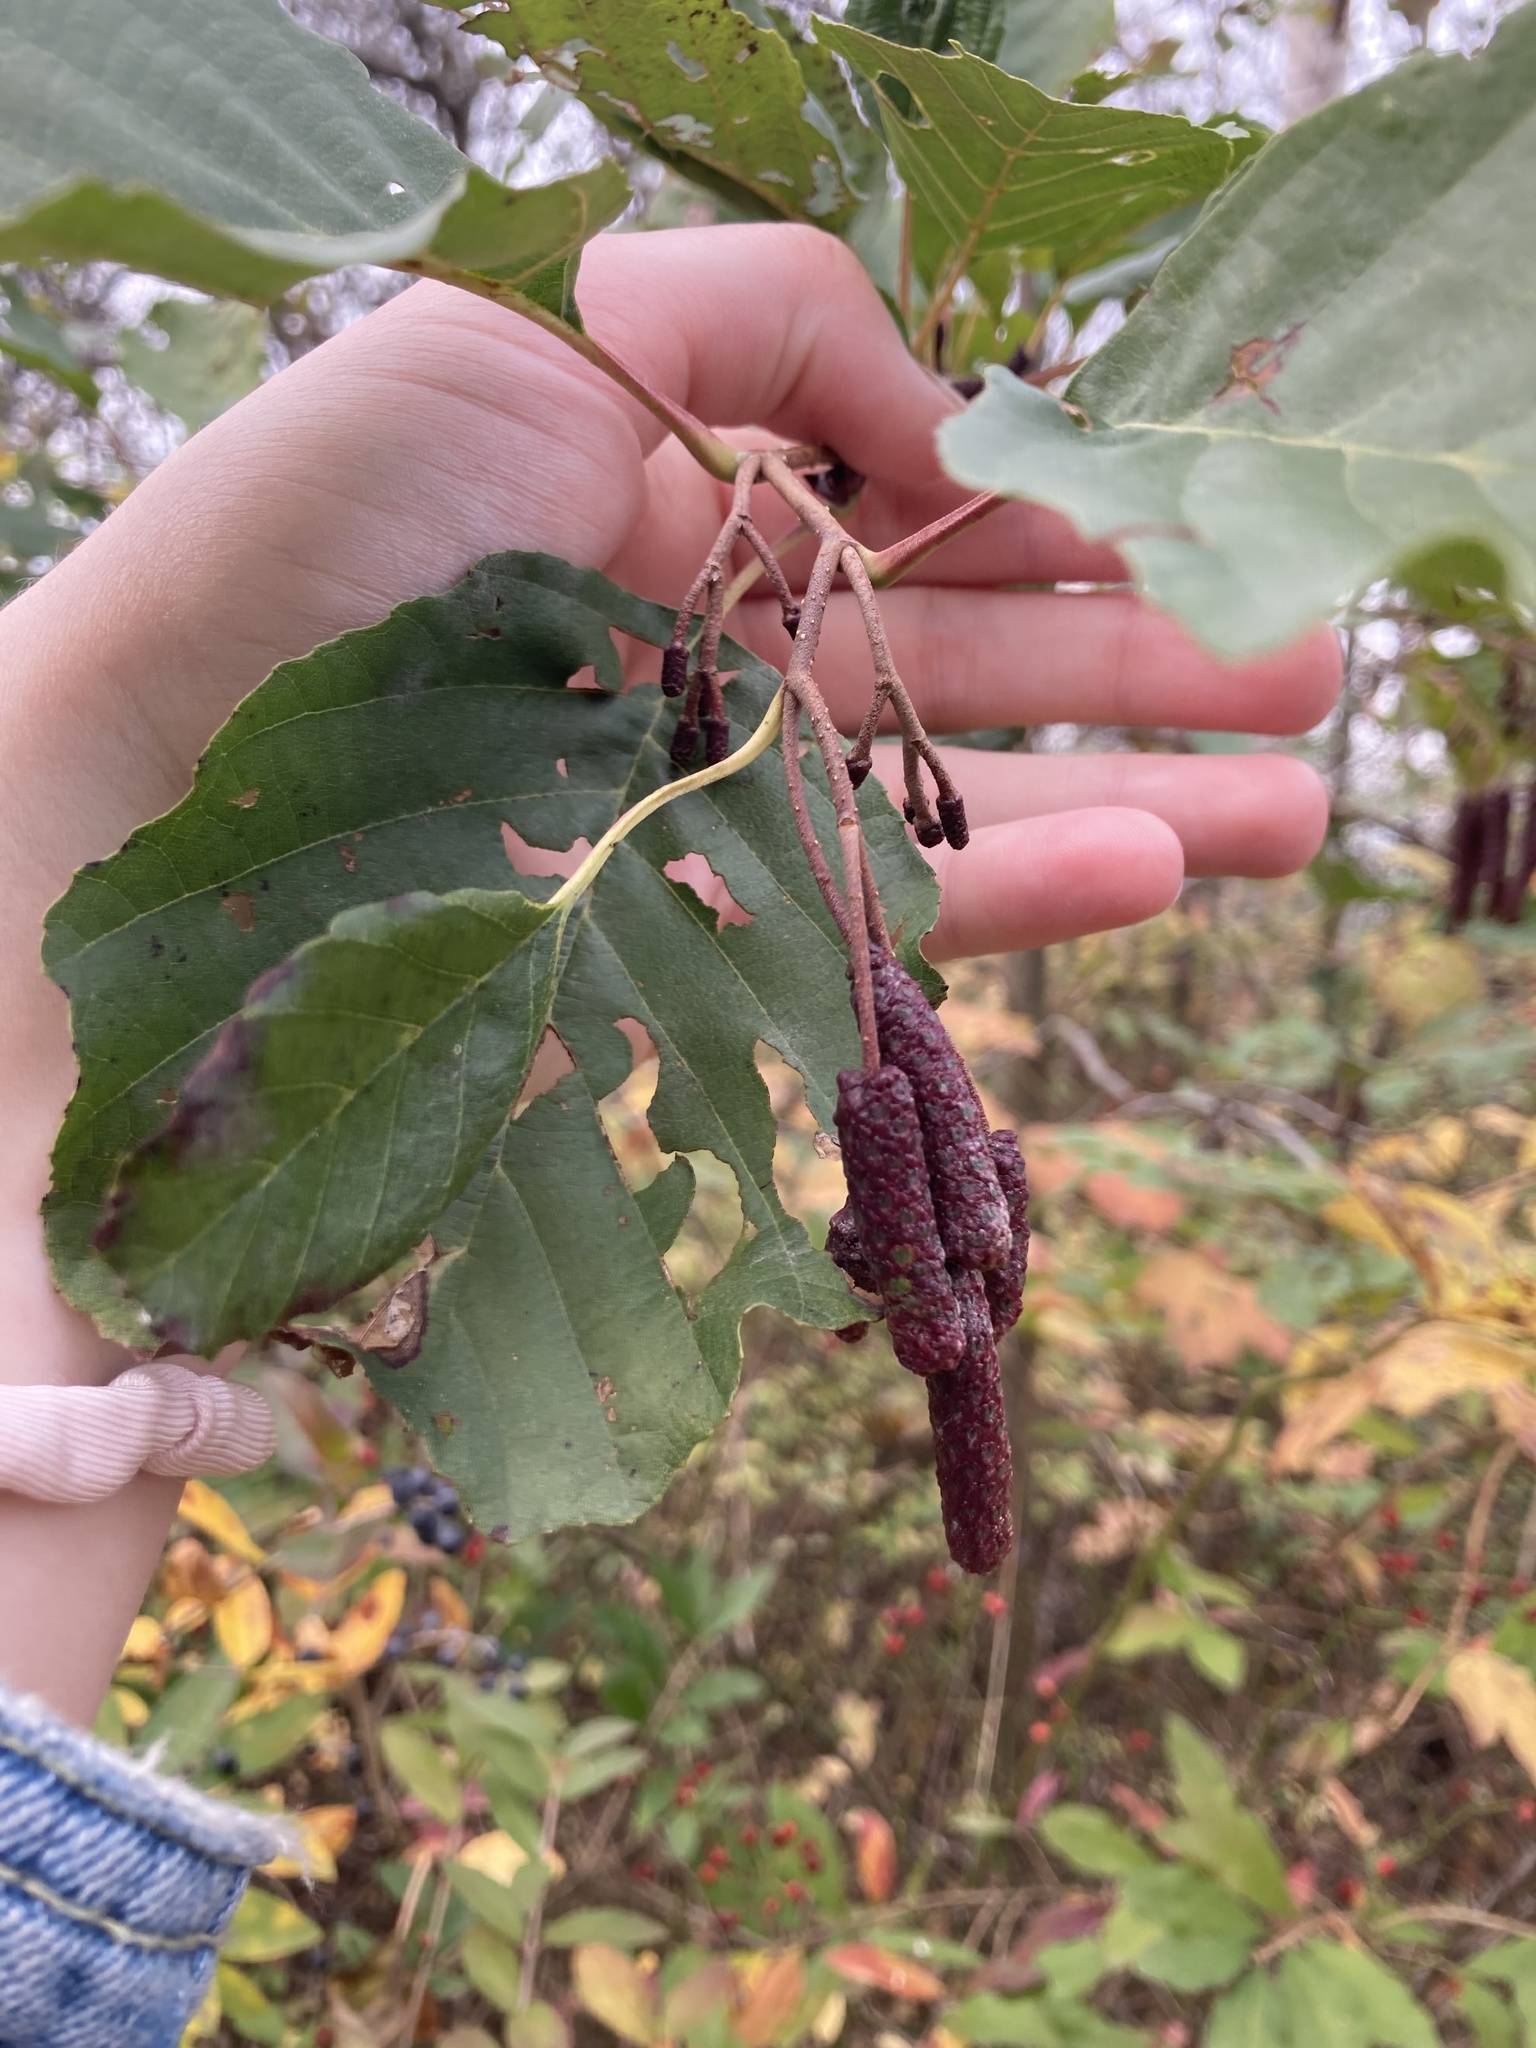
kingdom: Plantae
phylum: Tracheophyta
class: Magnoliopsida
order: Fagales
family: Betulaceae
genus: Alnus
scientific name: Alnus glutinosa
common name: Black alder
